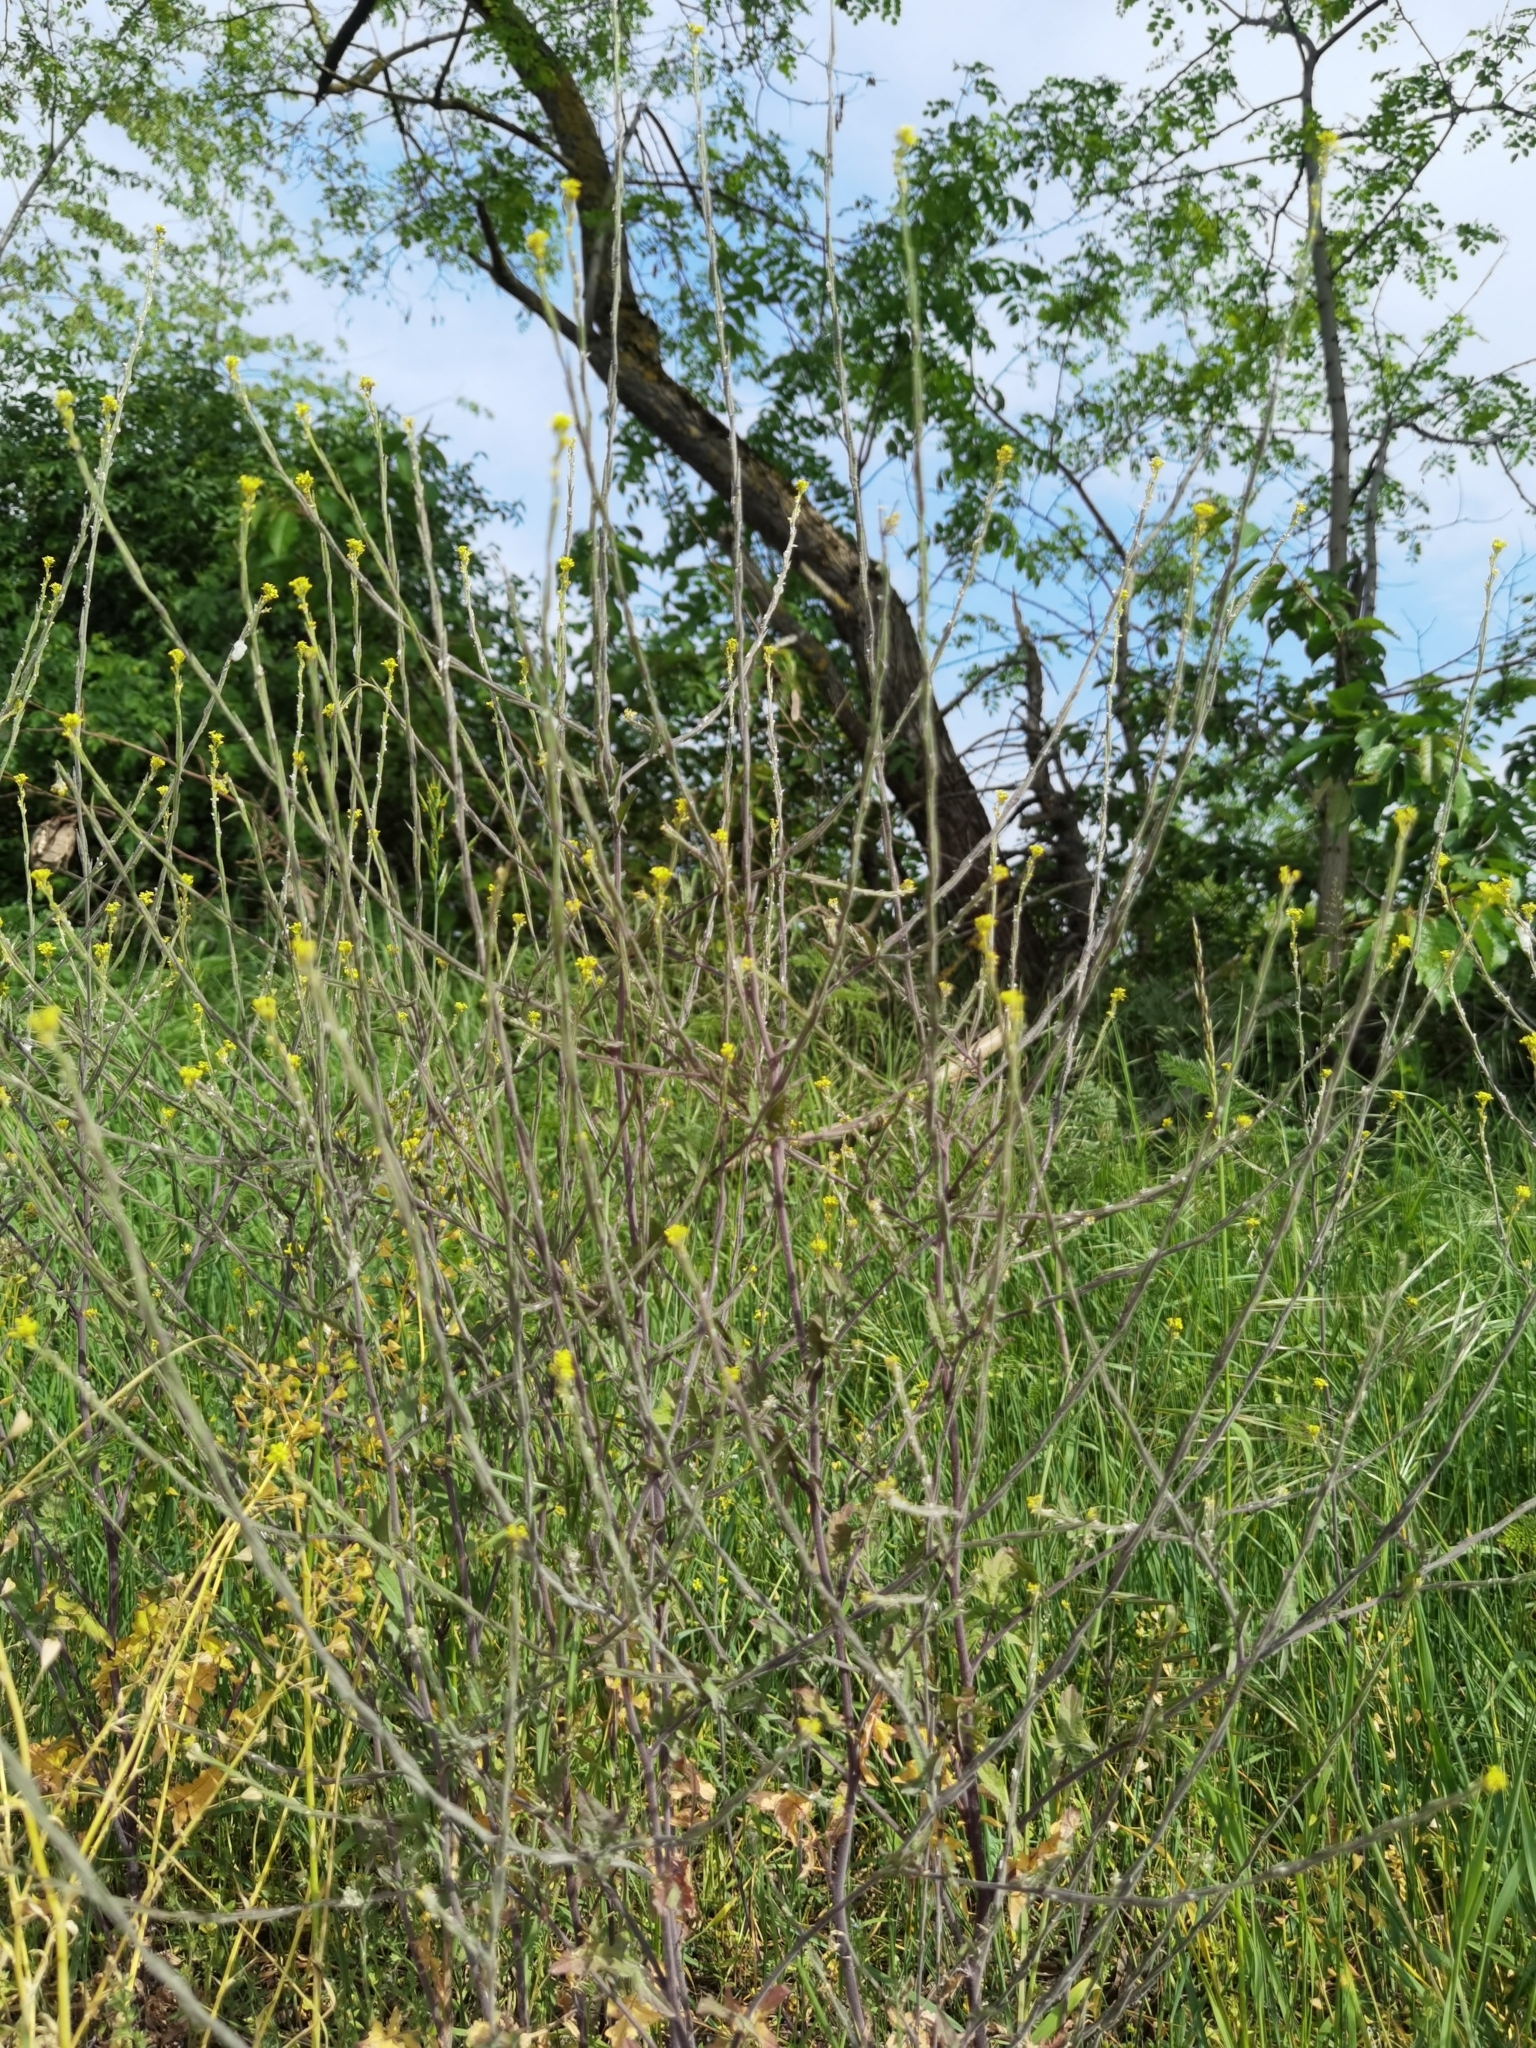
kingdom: Plantae
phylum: Tracheophyta
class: Magnoliopsida
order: Brassicales
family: Brassicaceae
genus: Sisymbrium
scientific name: Sisymbrium officinale
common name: Hedge mustard
